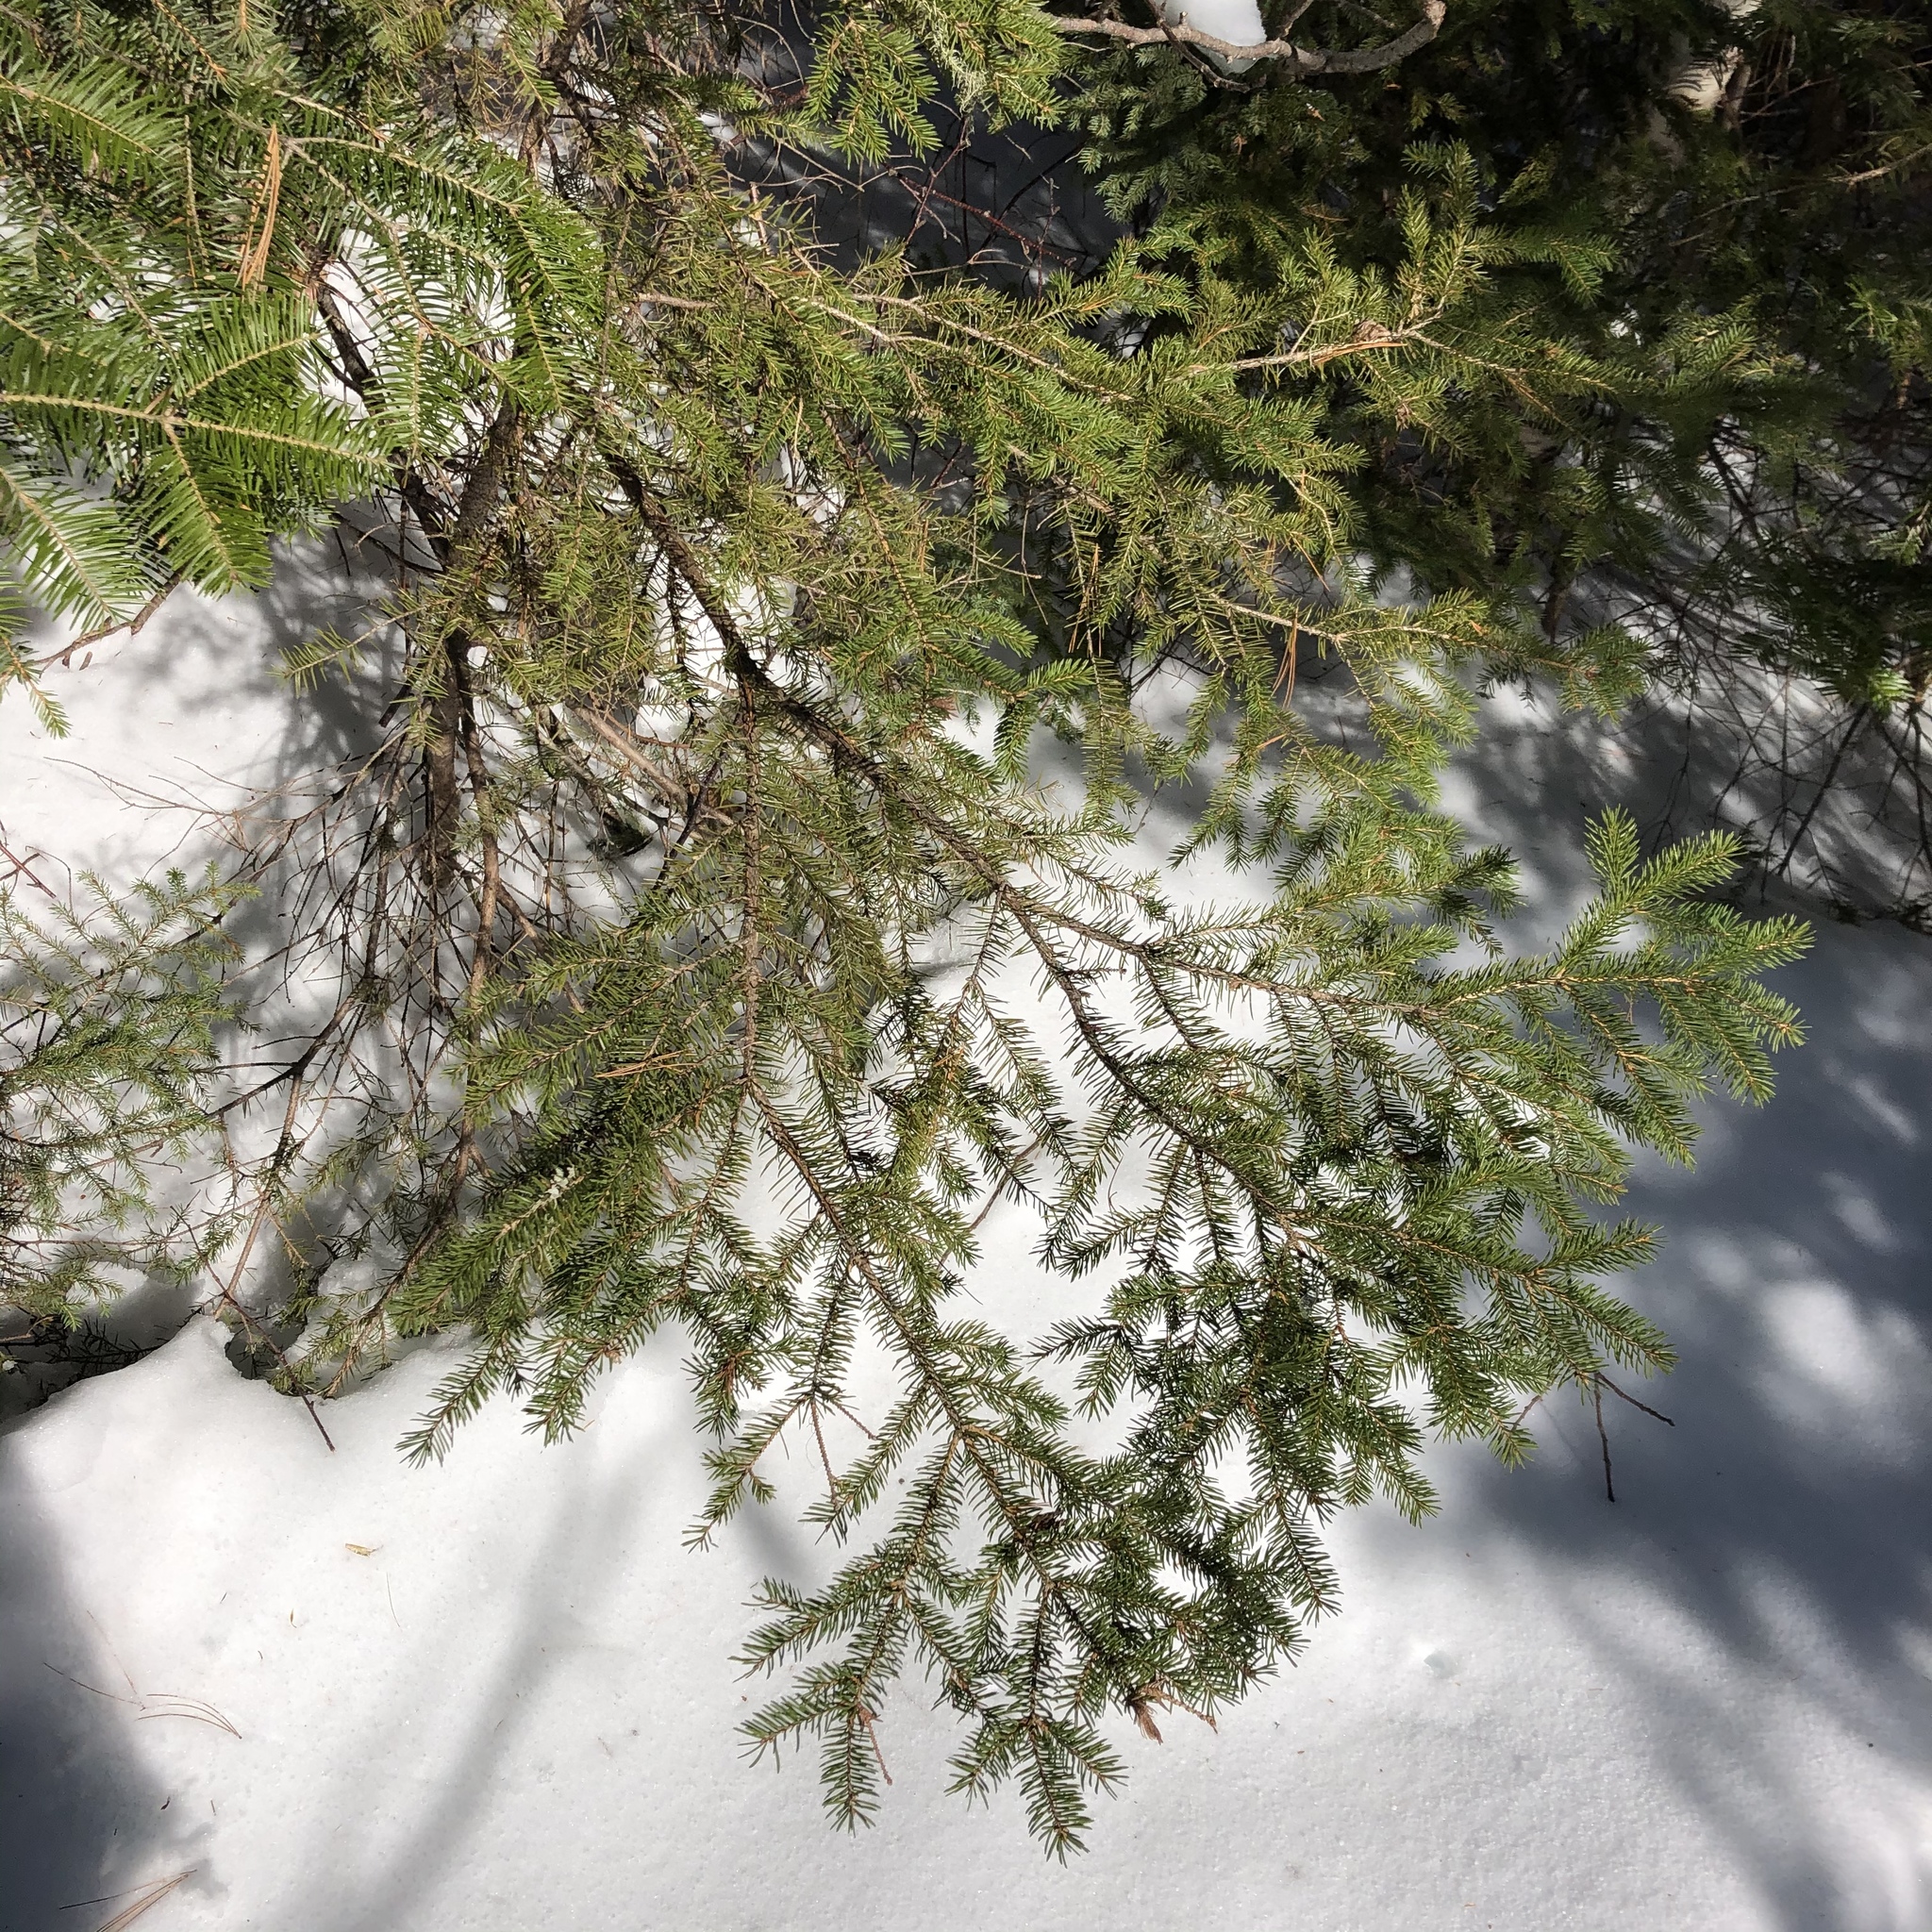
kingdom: Plantae
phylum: Tracheophyta
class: Pinopsida
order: Pinales
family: Pinaceae
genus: Picea
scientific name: Picea glauca
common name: White spruce
